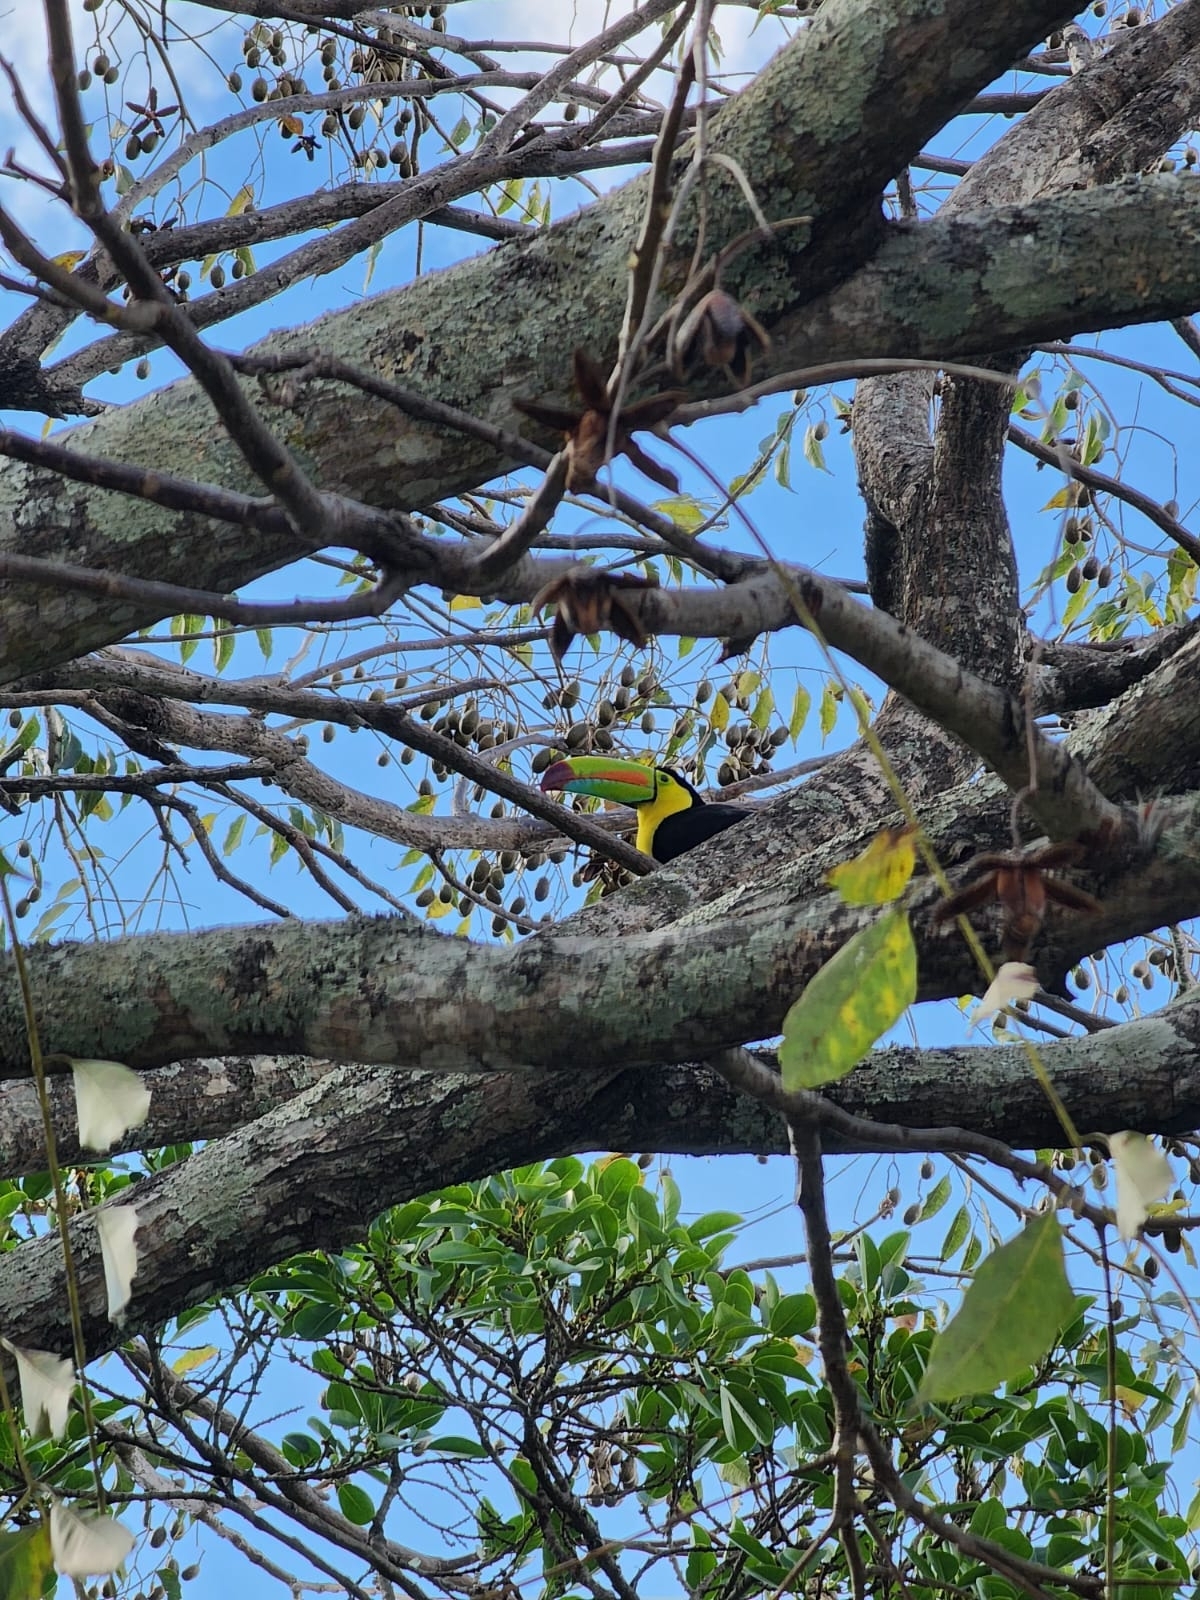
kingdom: Animalia
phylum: Chordata
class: Aves
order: Piciformes
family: Ramphastidae
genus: Ramphastos
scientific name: Ramphastos sulfuratus
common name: Keel-billed toucan
